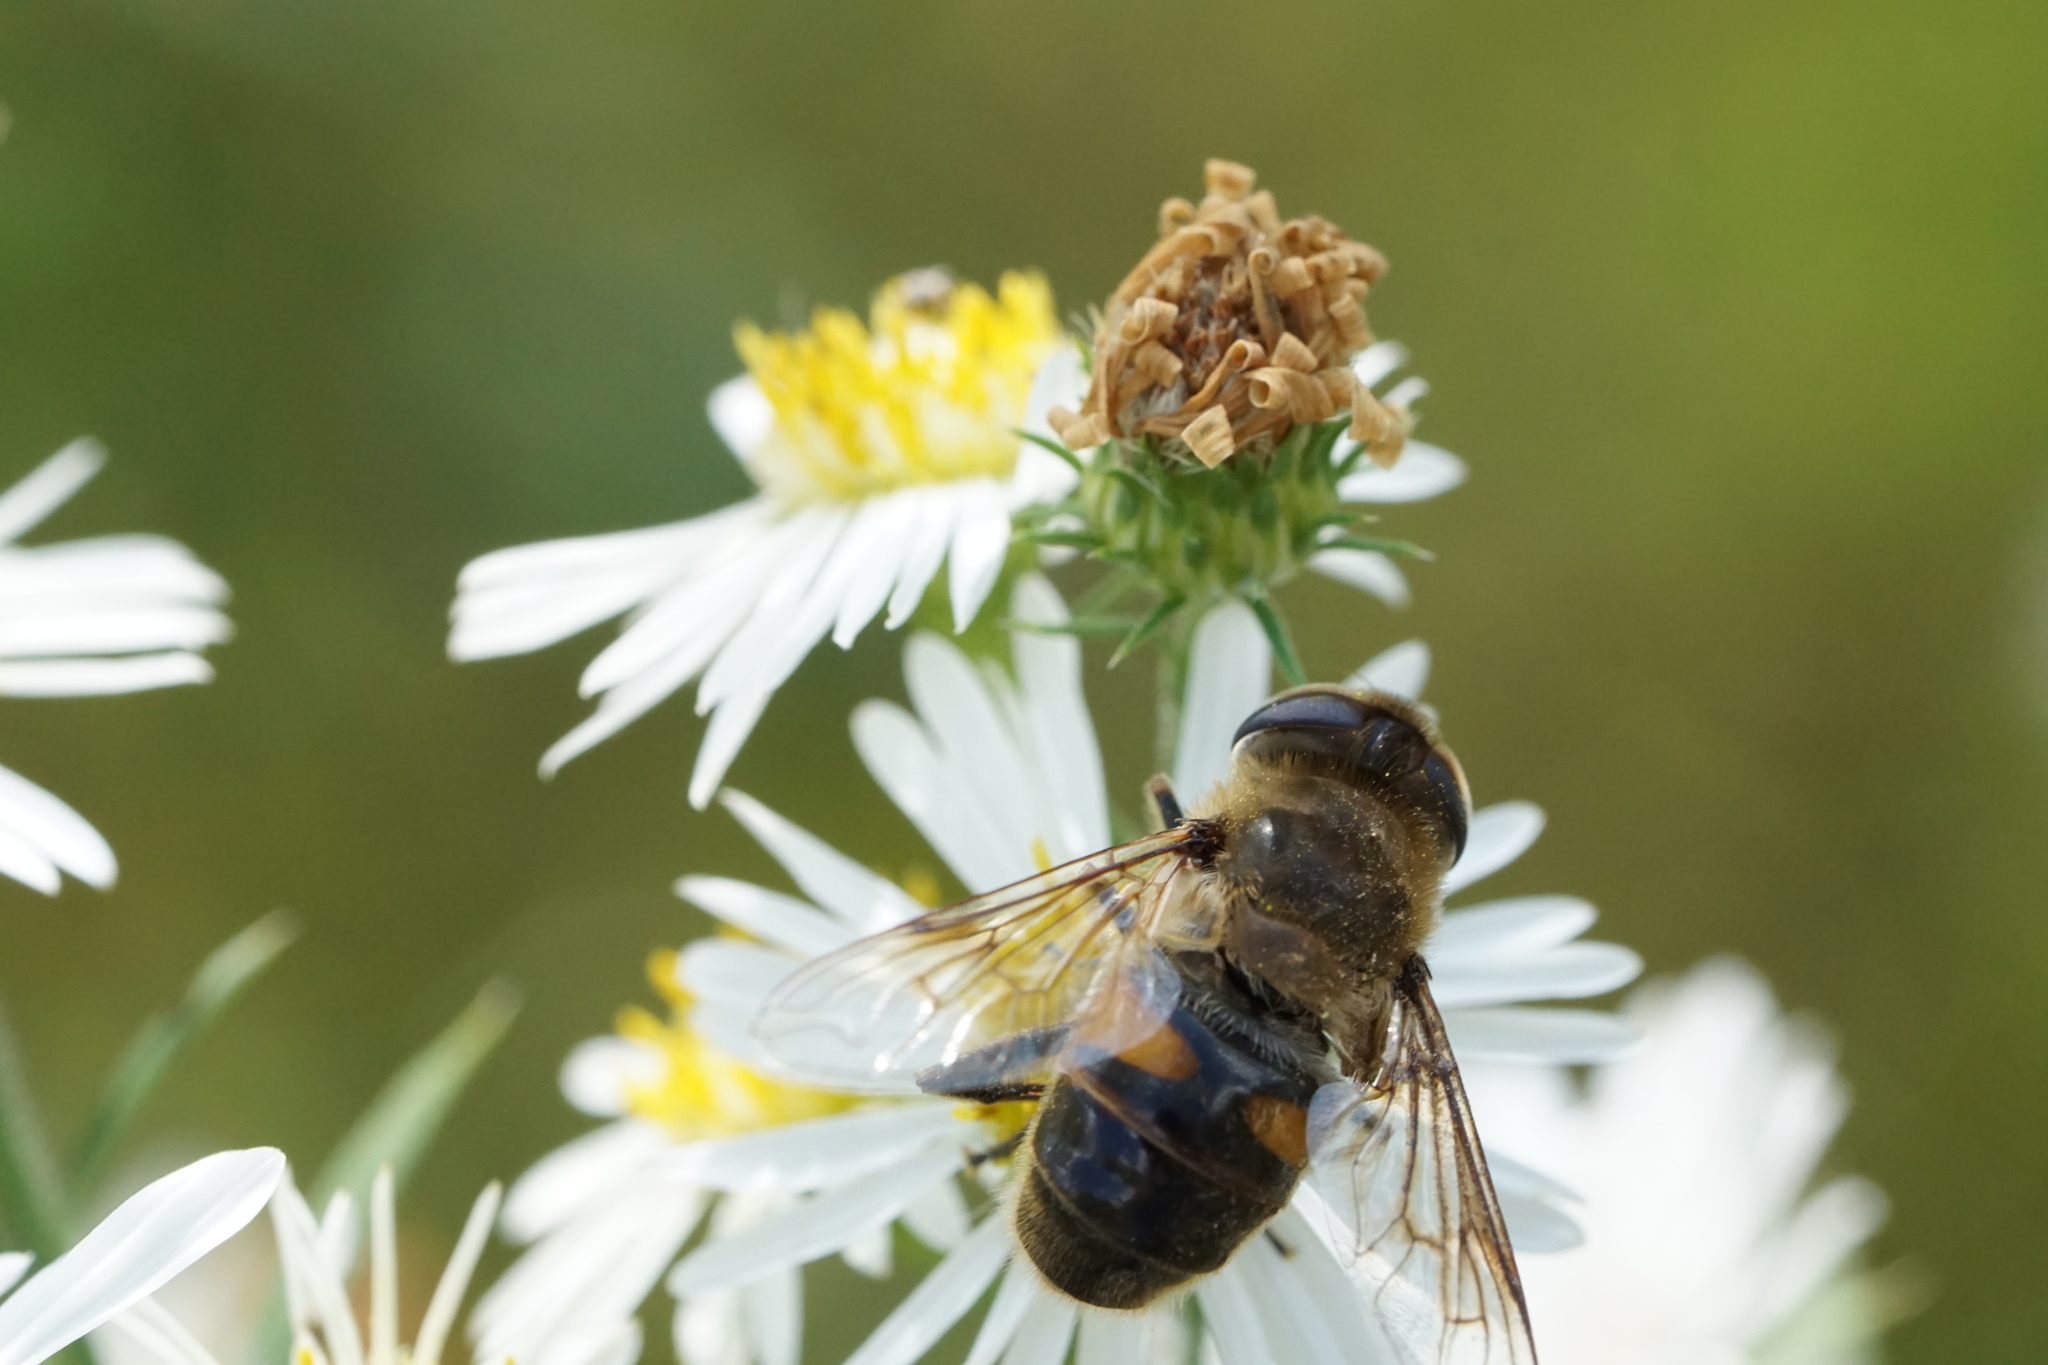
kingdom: Animalia
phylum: Arthropoda
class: Insecta
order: Diptera
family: Syrphidae
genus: Eristalis
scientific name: Eristalis tenax
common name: Drone fly
